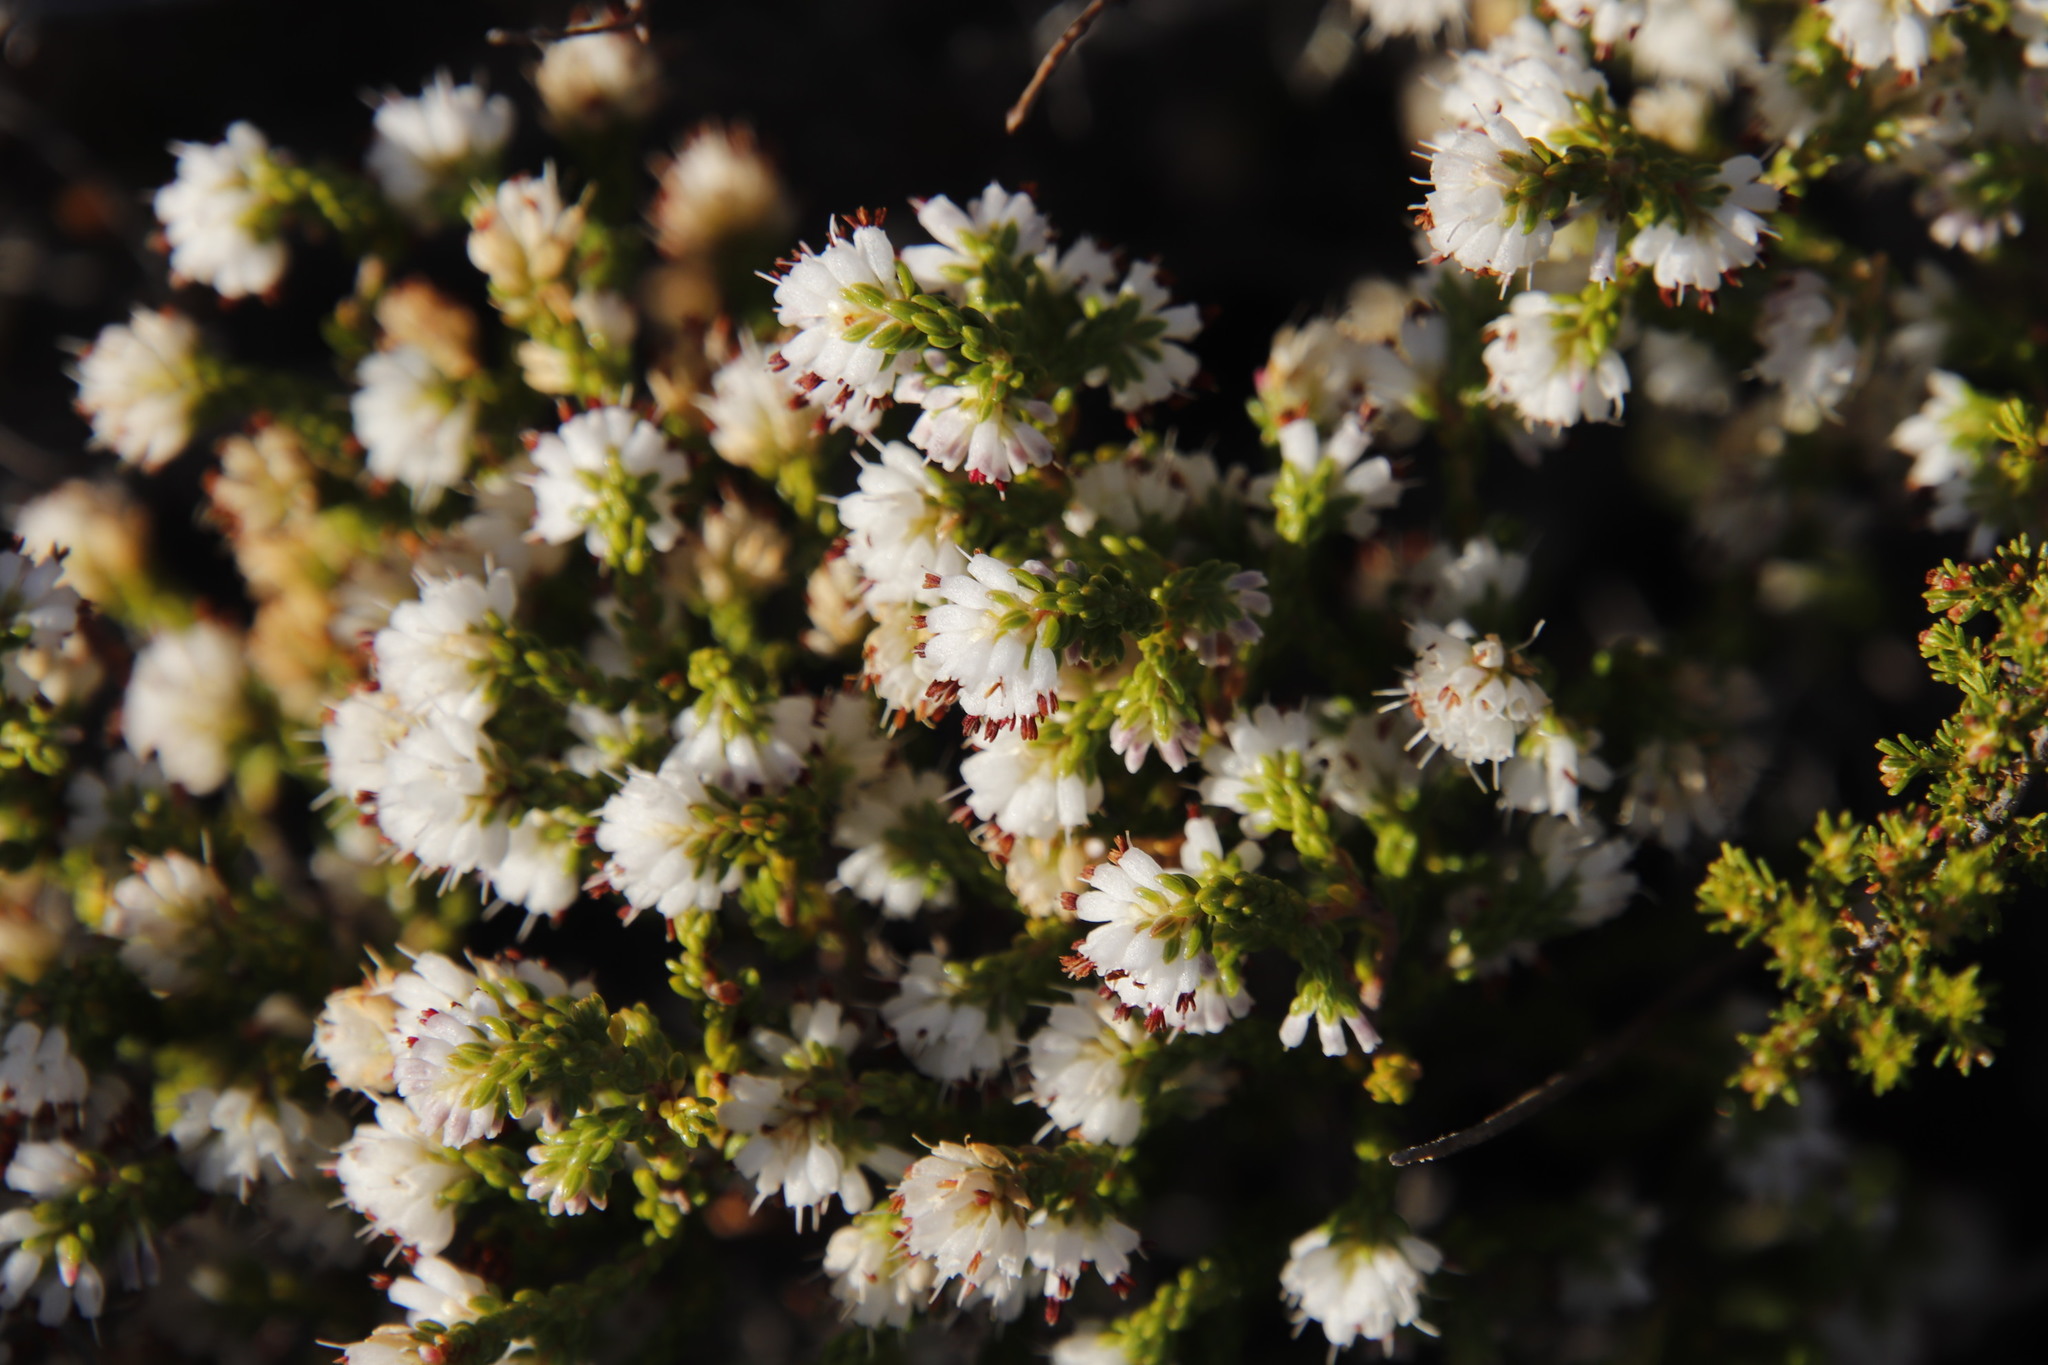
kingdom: Plantae
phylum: Tracheophyta
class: Magnoliopsida
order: Ericales
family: Ericaceae
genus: Erica
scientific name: Erica labialis
